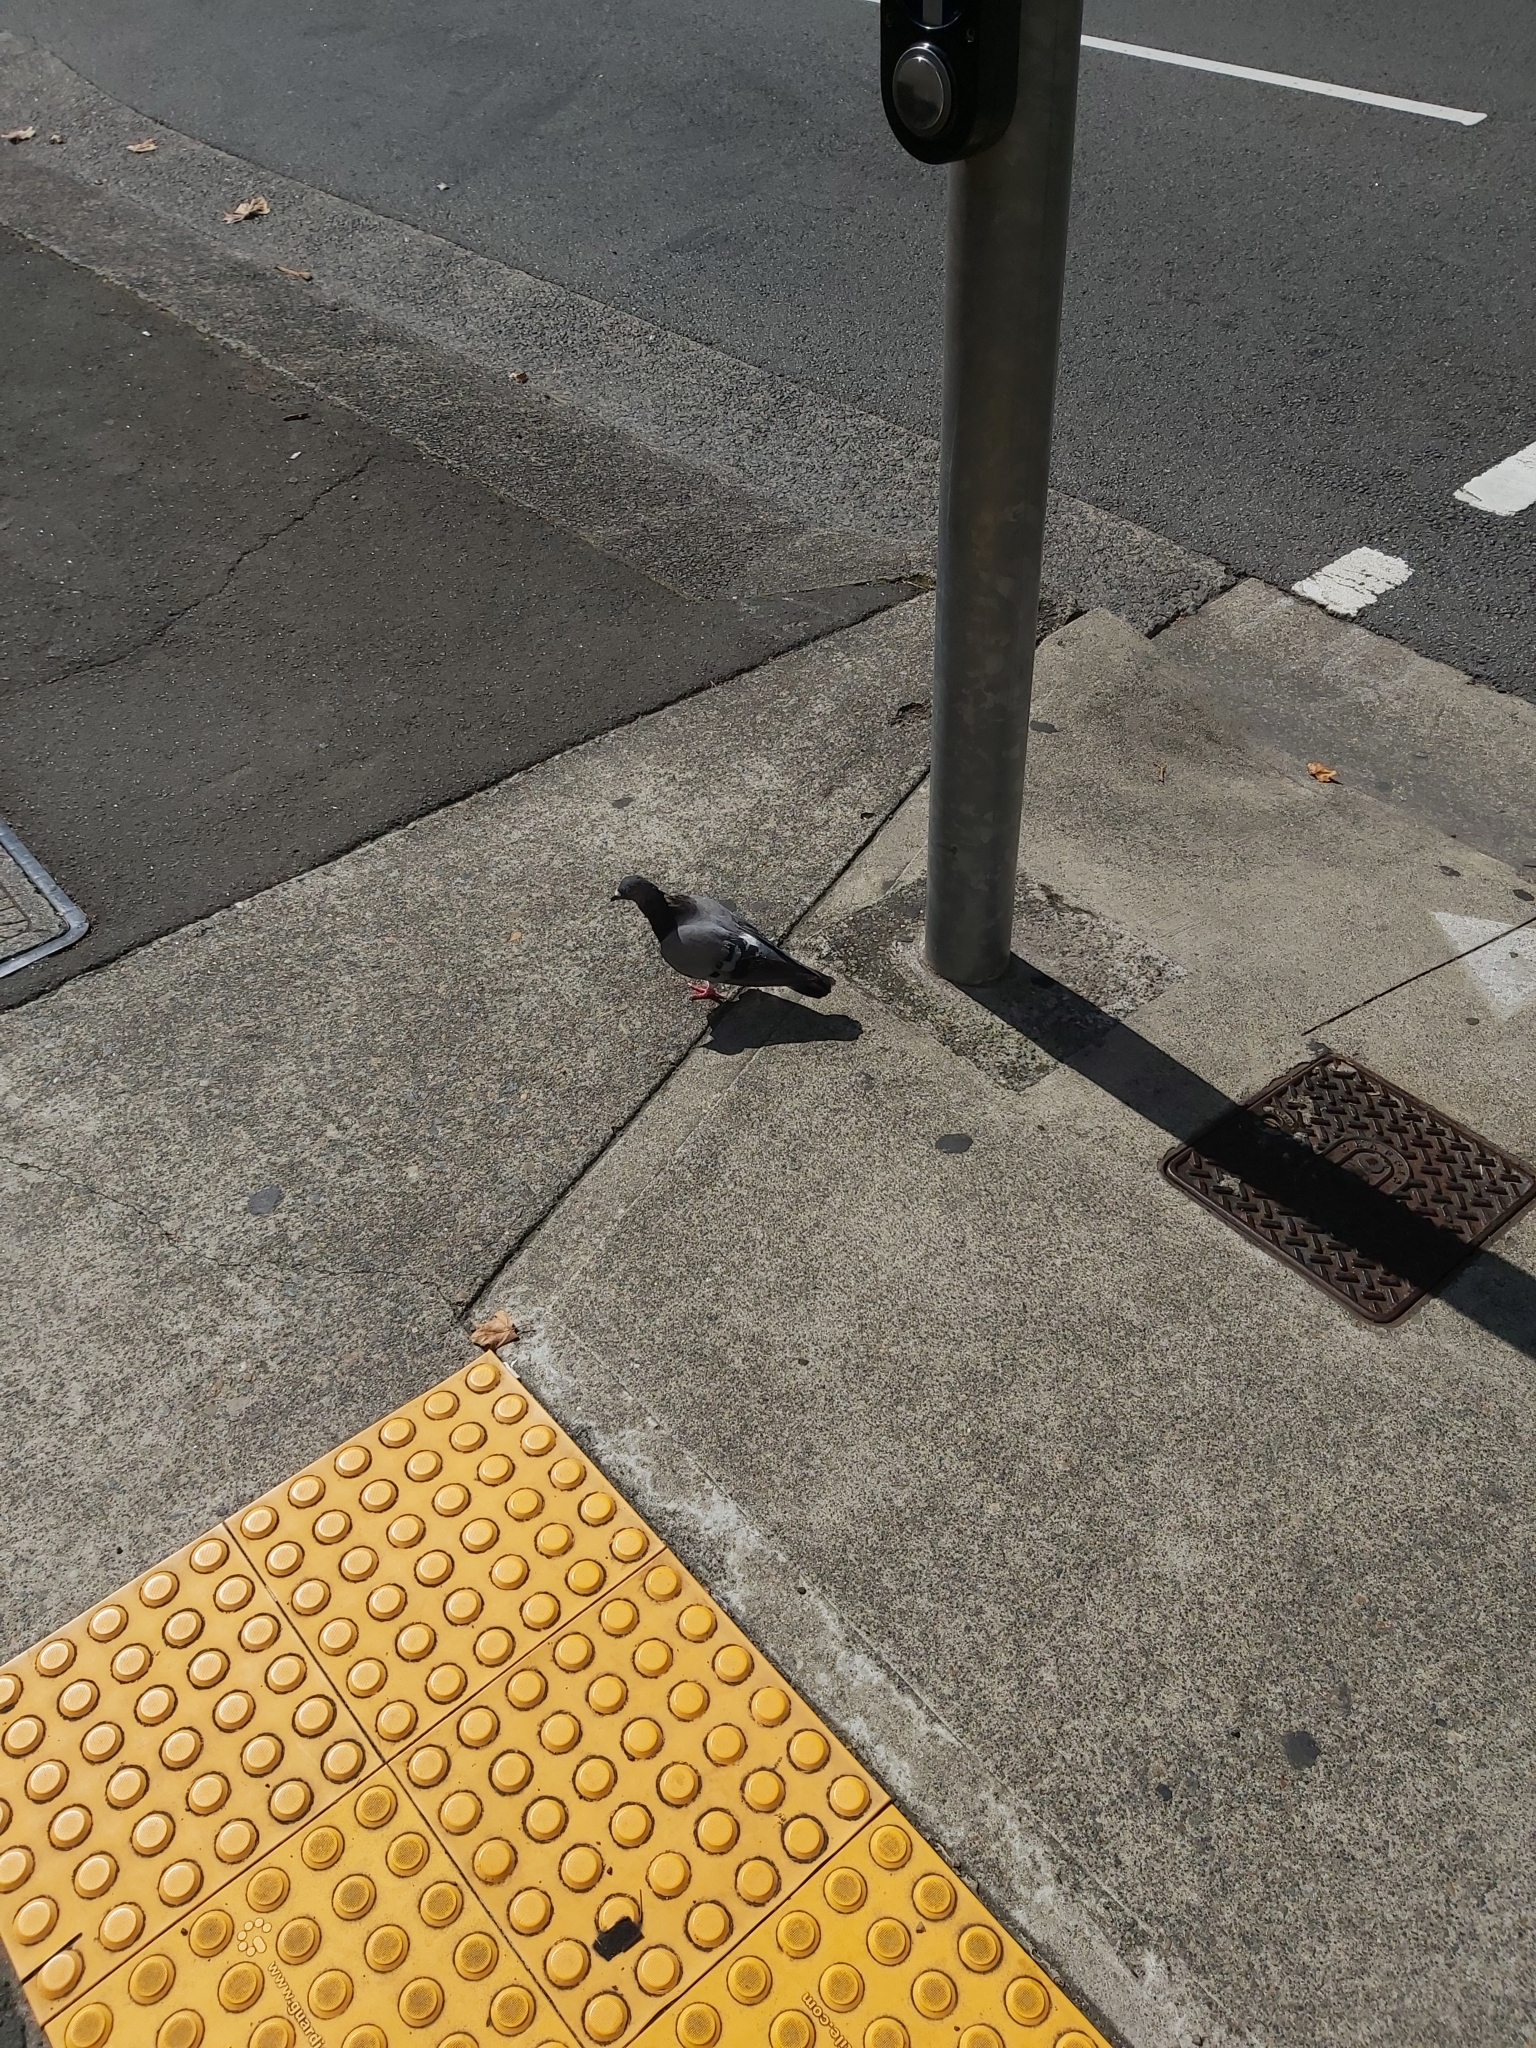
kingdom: Animalia
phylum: Chordata
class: Aves
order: Columbiformes
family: Columbidae
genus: Columba
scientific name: Columba livia
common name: Rock pigeon
